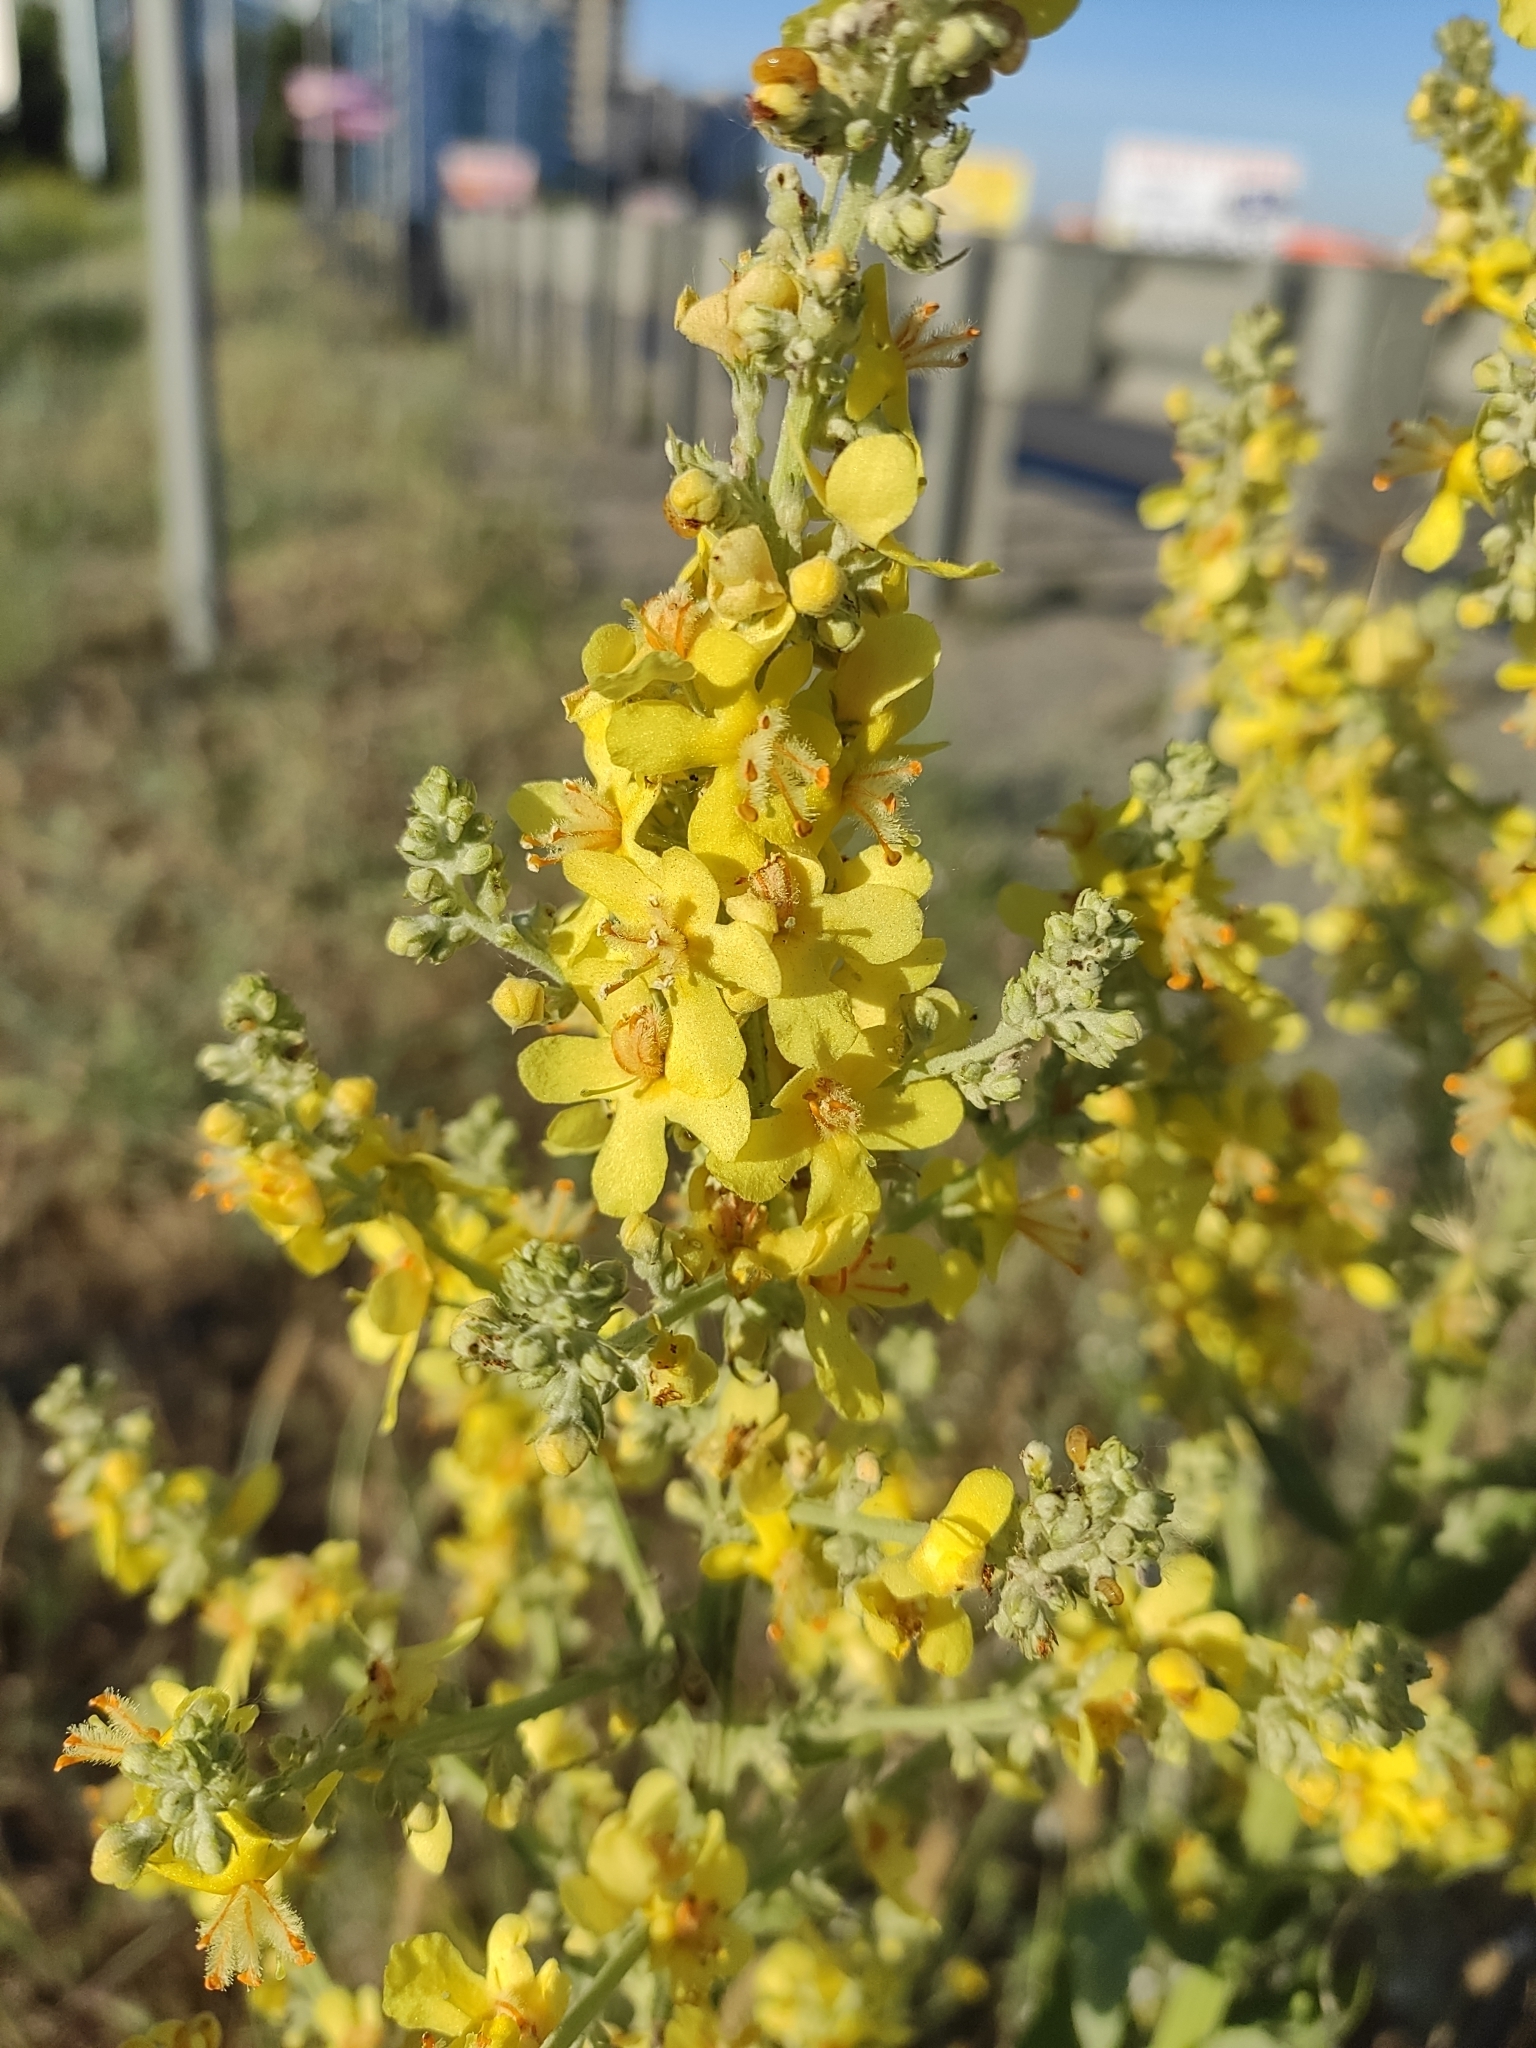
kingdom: Plantae
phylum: Tracheophyta
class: Magnoliopsida
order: Lamiales
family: Scrophulariaceae
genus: Verbascum
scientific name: Verbascum lychnitis
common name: White mullein
